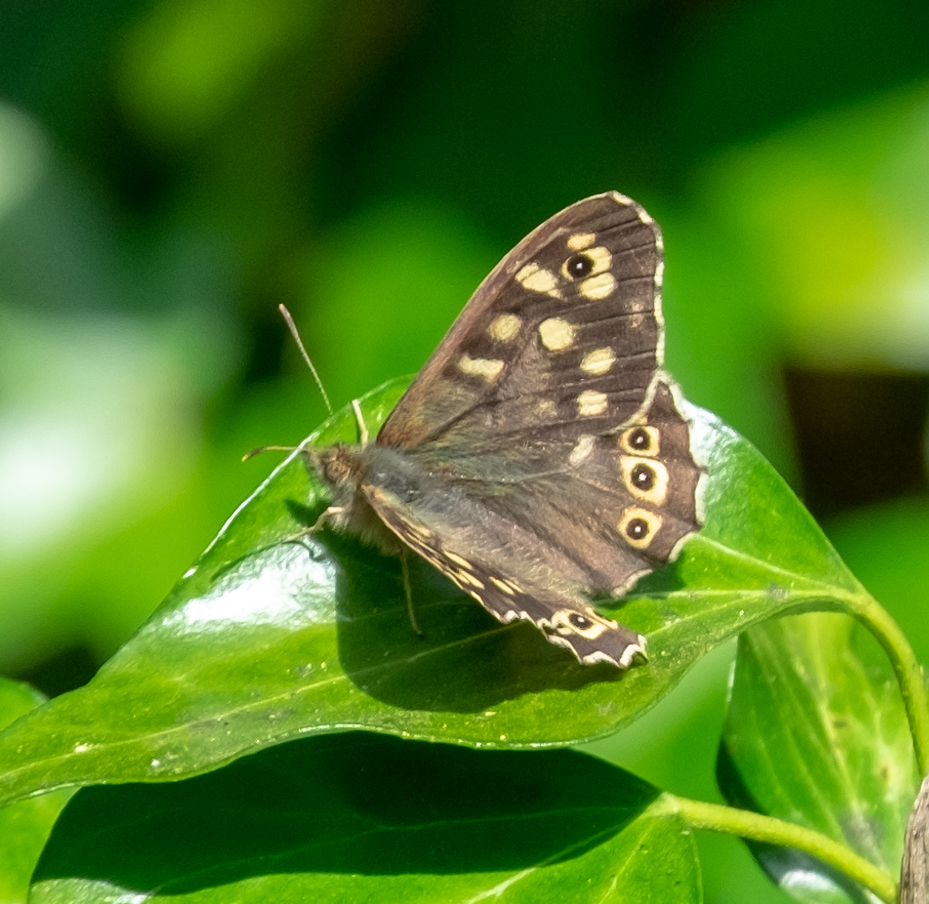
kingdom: Animalia
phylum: Arthropoda
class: Insecta
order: Lepidoptera
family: Nymphalidae
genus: Pararge
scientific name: Pararge aegeria
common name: Speckled wood
